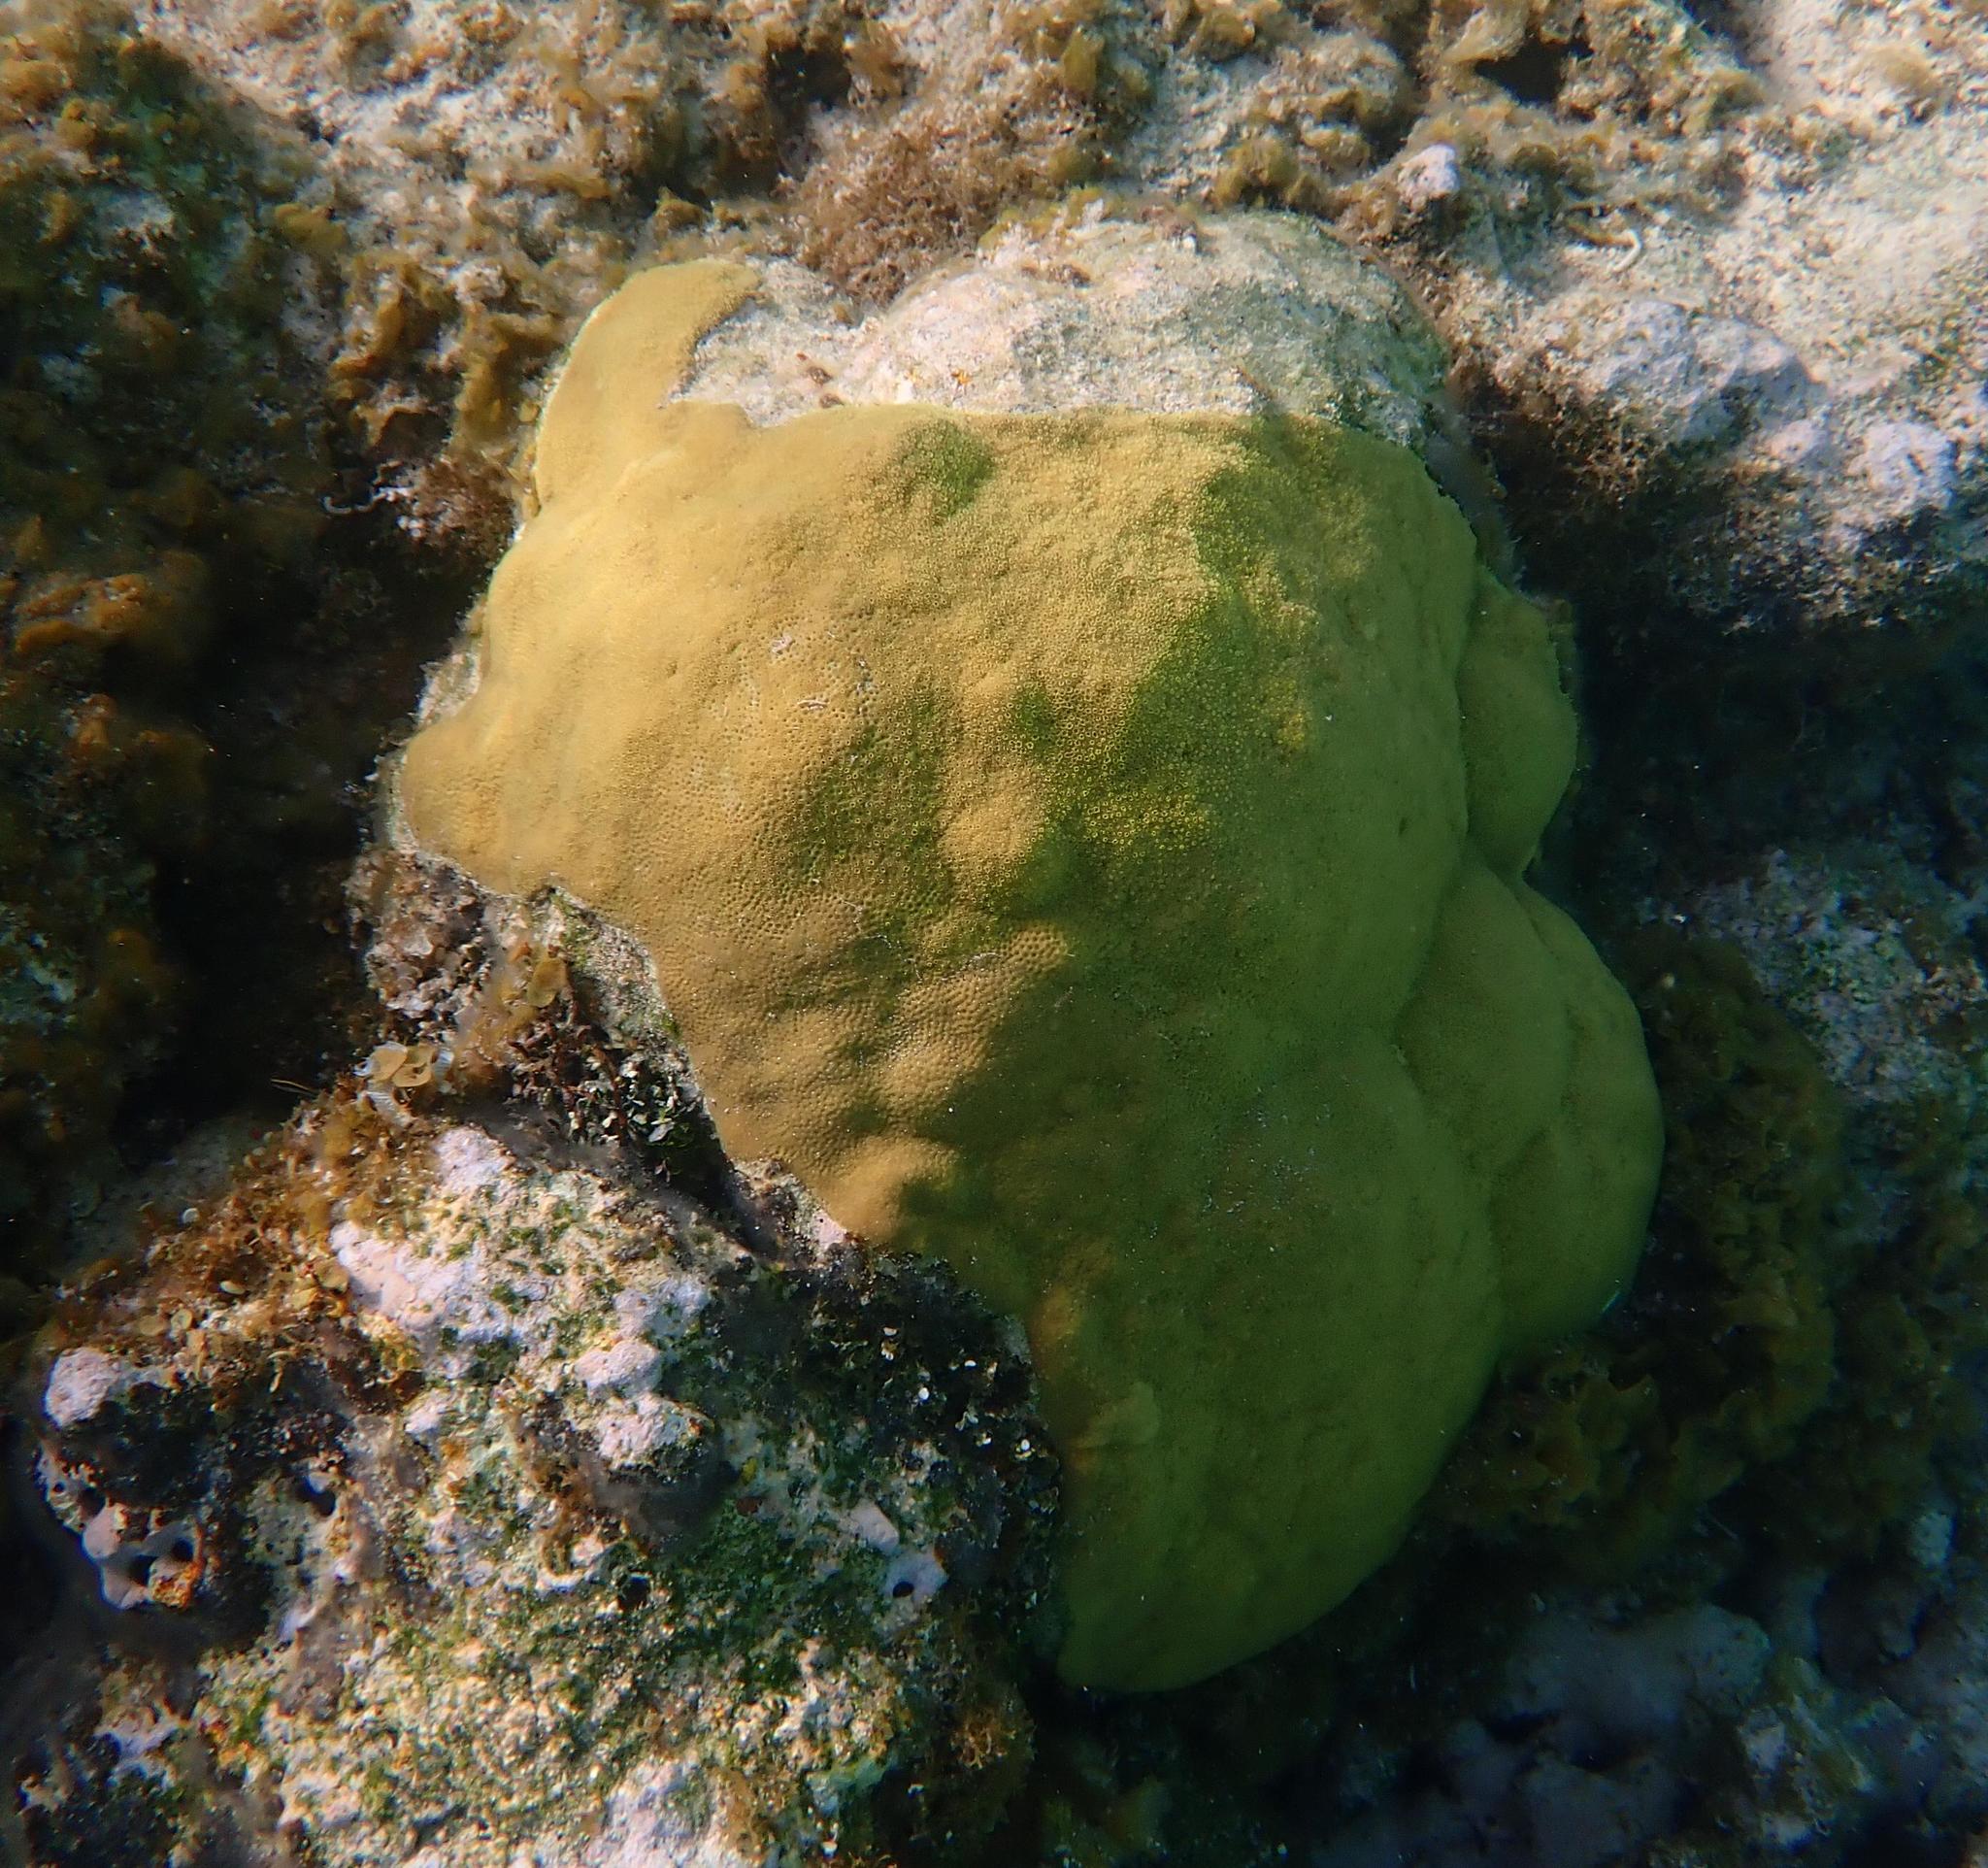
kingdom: Animalia
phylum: Cnidaria
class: Anthozoa
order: Scleractinia
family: Poritidae
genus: Porites
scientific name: Porites astreoides
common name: Mustard hill coral
